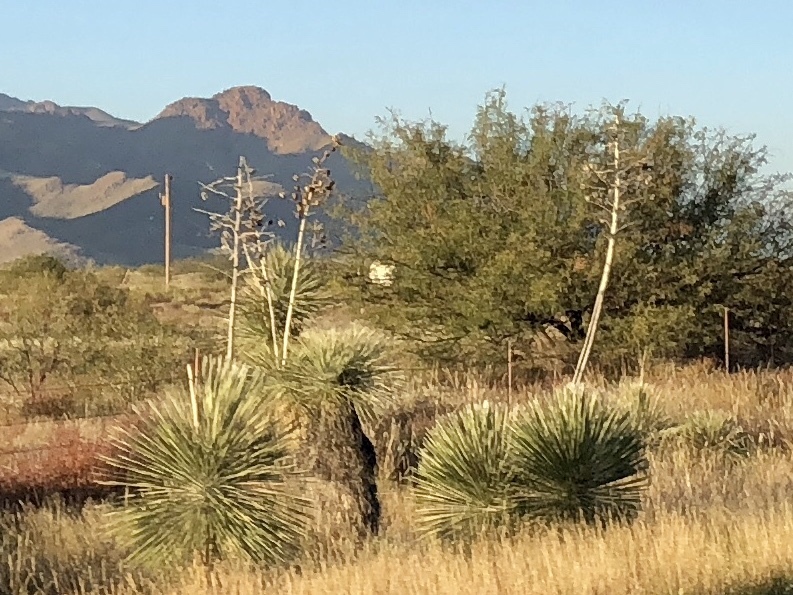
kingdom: Plantae
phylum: Tracheophyta
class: Liliopsida
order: Asparagales
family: Asparagaceae
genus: Yucca
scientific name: Yucca elata
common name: Palmella
